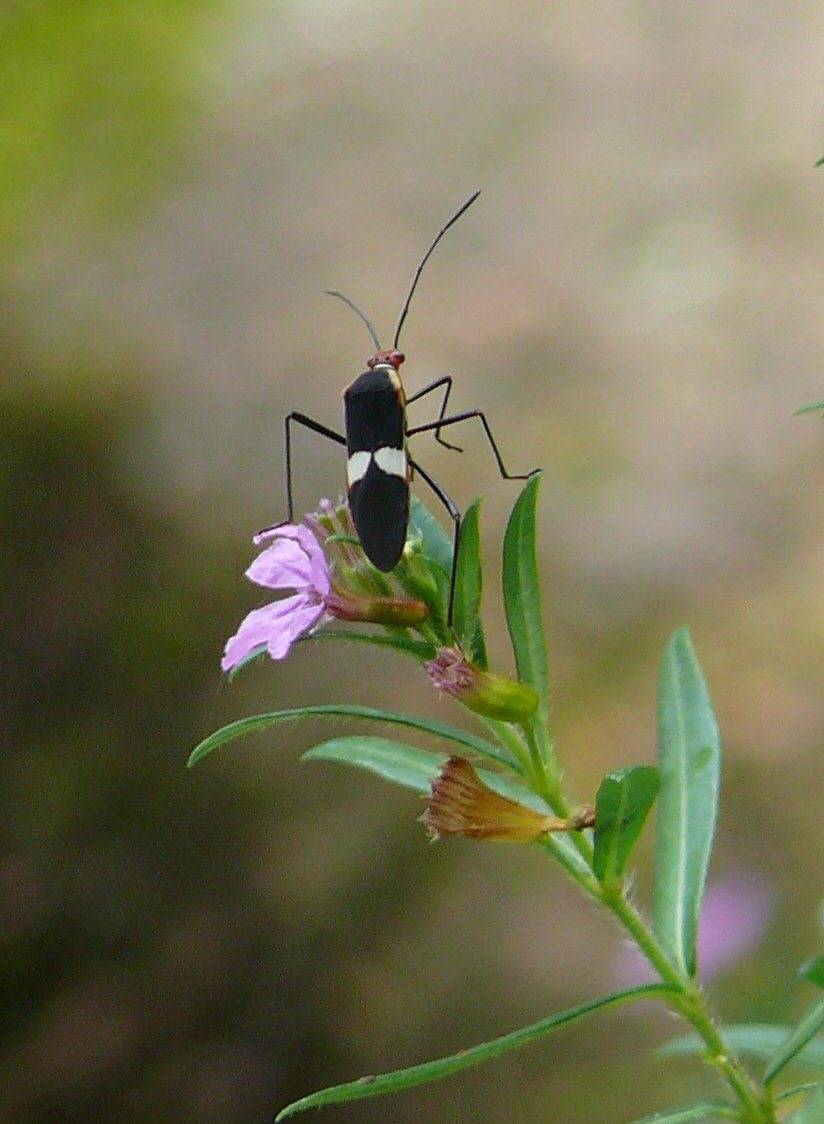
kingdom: Animalia
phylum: Arthropoda
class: Insecta
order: Hemiptera
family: Coreidae
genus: Hypselonotus
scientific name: Hypselonotus interruptus
